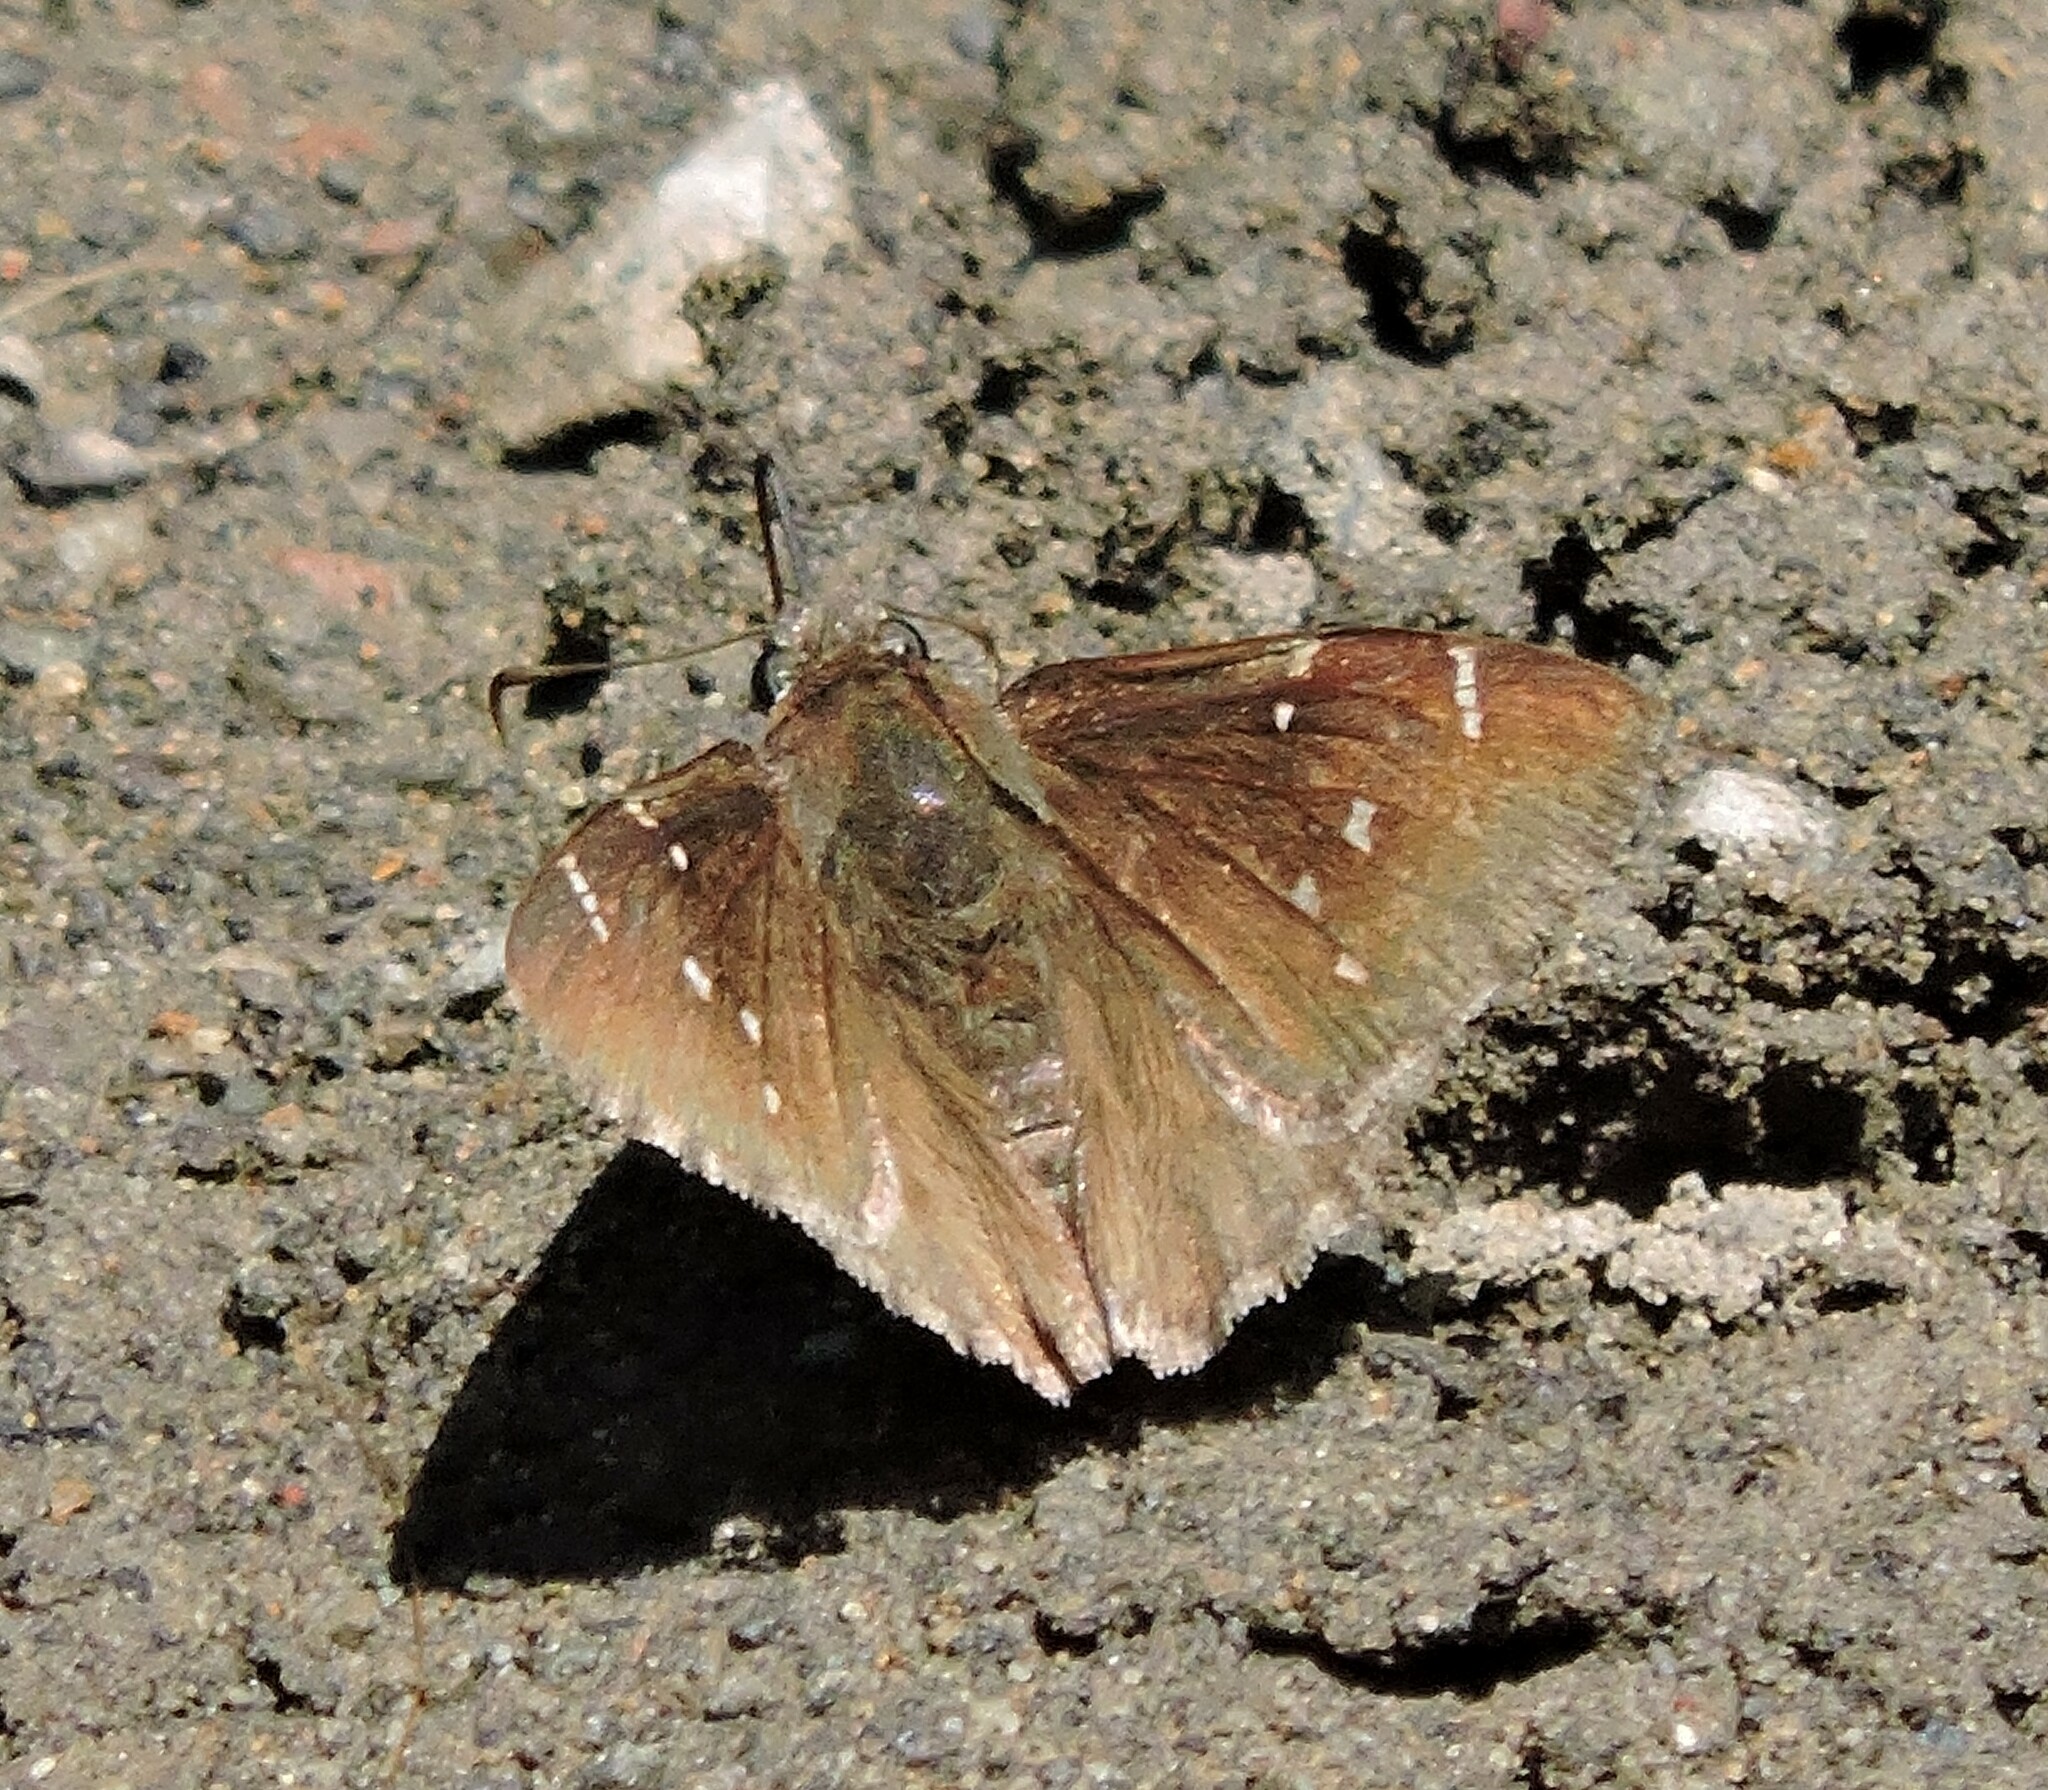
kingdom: Animalia
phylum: Arthropoda
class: Insecta
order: Lepidoptera
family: Hesperiidae
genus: Thorybes
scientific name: Thorybes pylades
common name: Northern cloudywing
